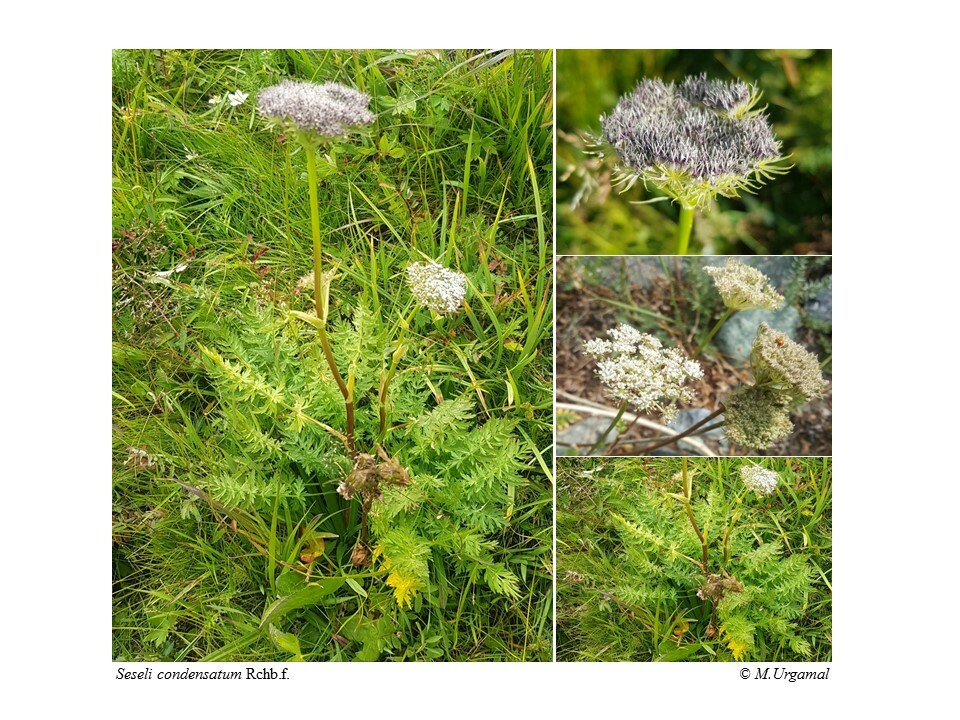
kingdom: Plantae
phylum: Tracheophyta
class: Magnoliopsida
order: Apiales
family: Apiaceae
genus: Seseli
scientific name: Seseli condensatum
